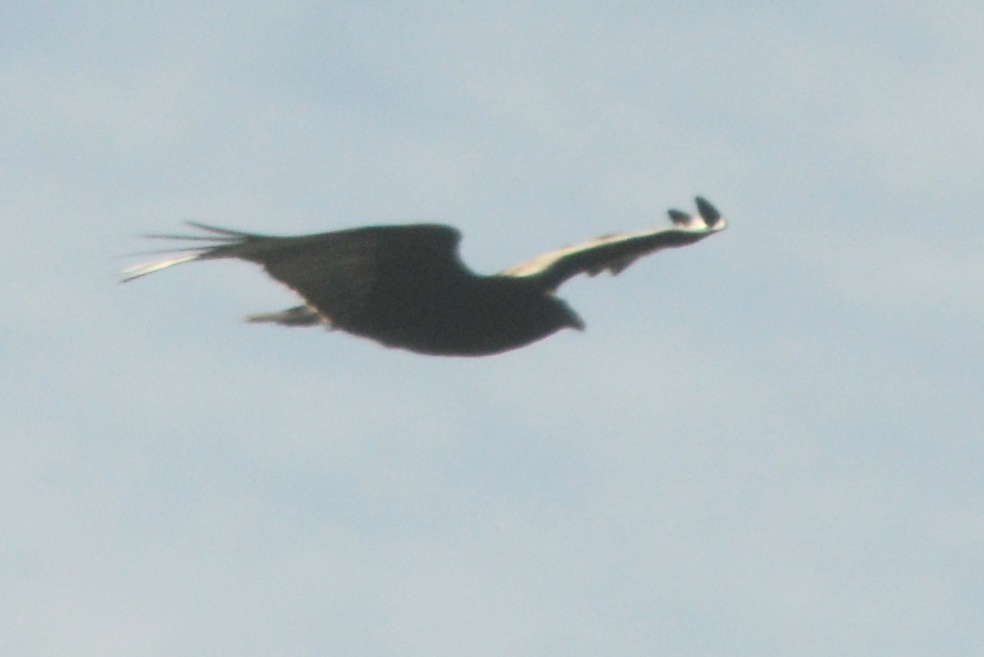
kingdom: Animalia
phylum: Chordata
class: Aves
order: Accipitriformes
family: Cathartidae
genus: Cathartes
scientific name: Cathartes aura
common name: Turkey vulture
